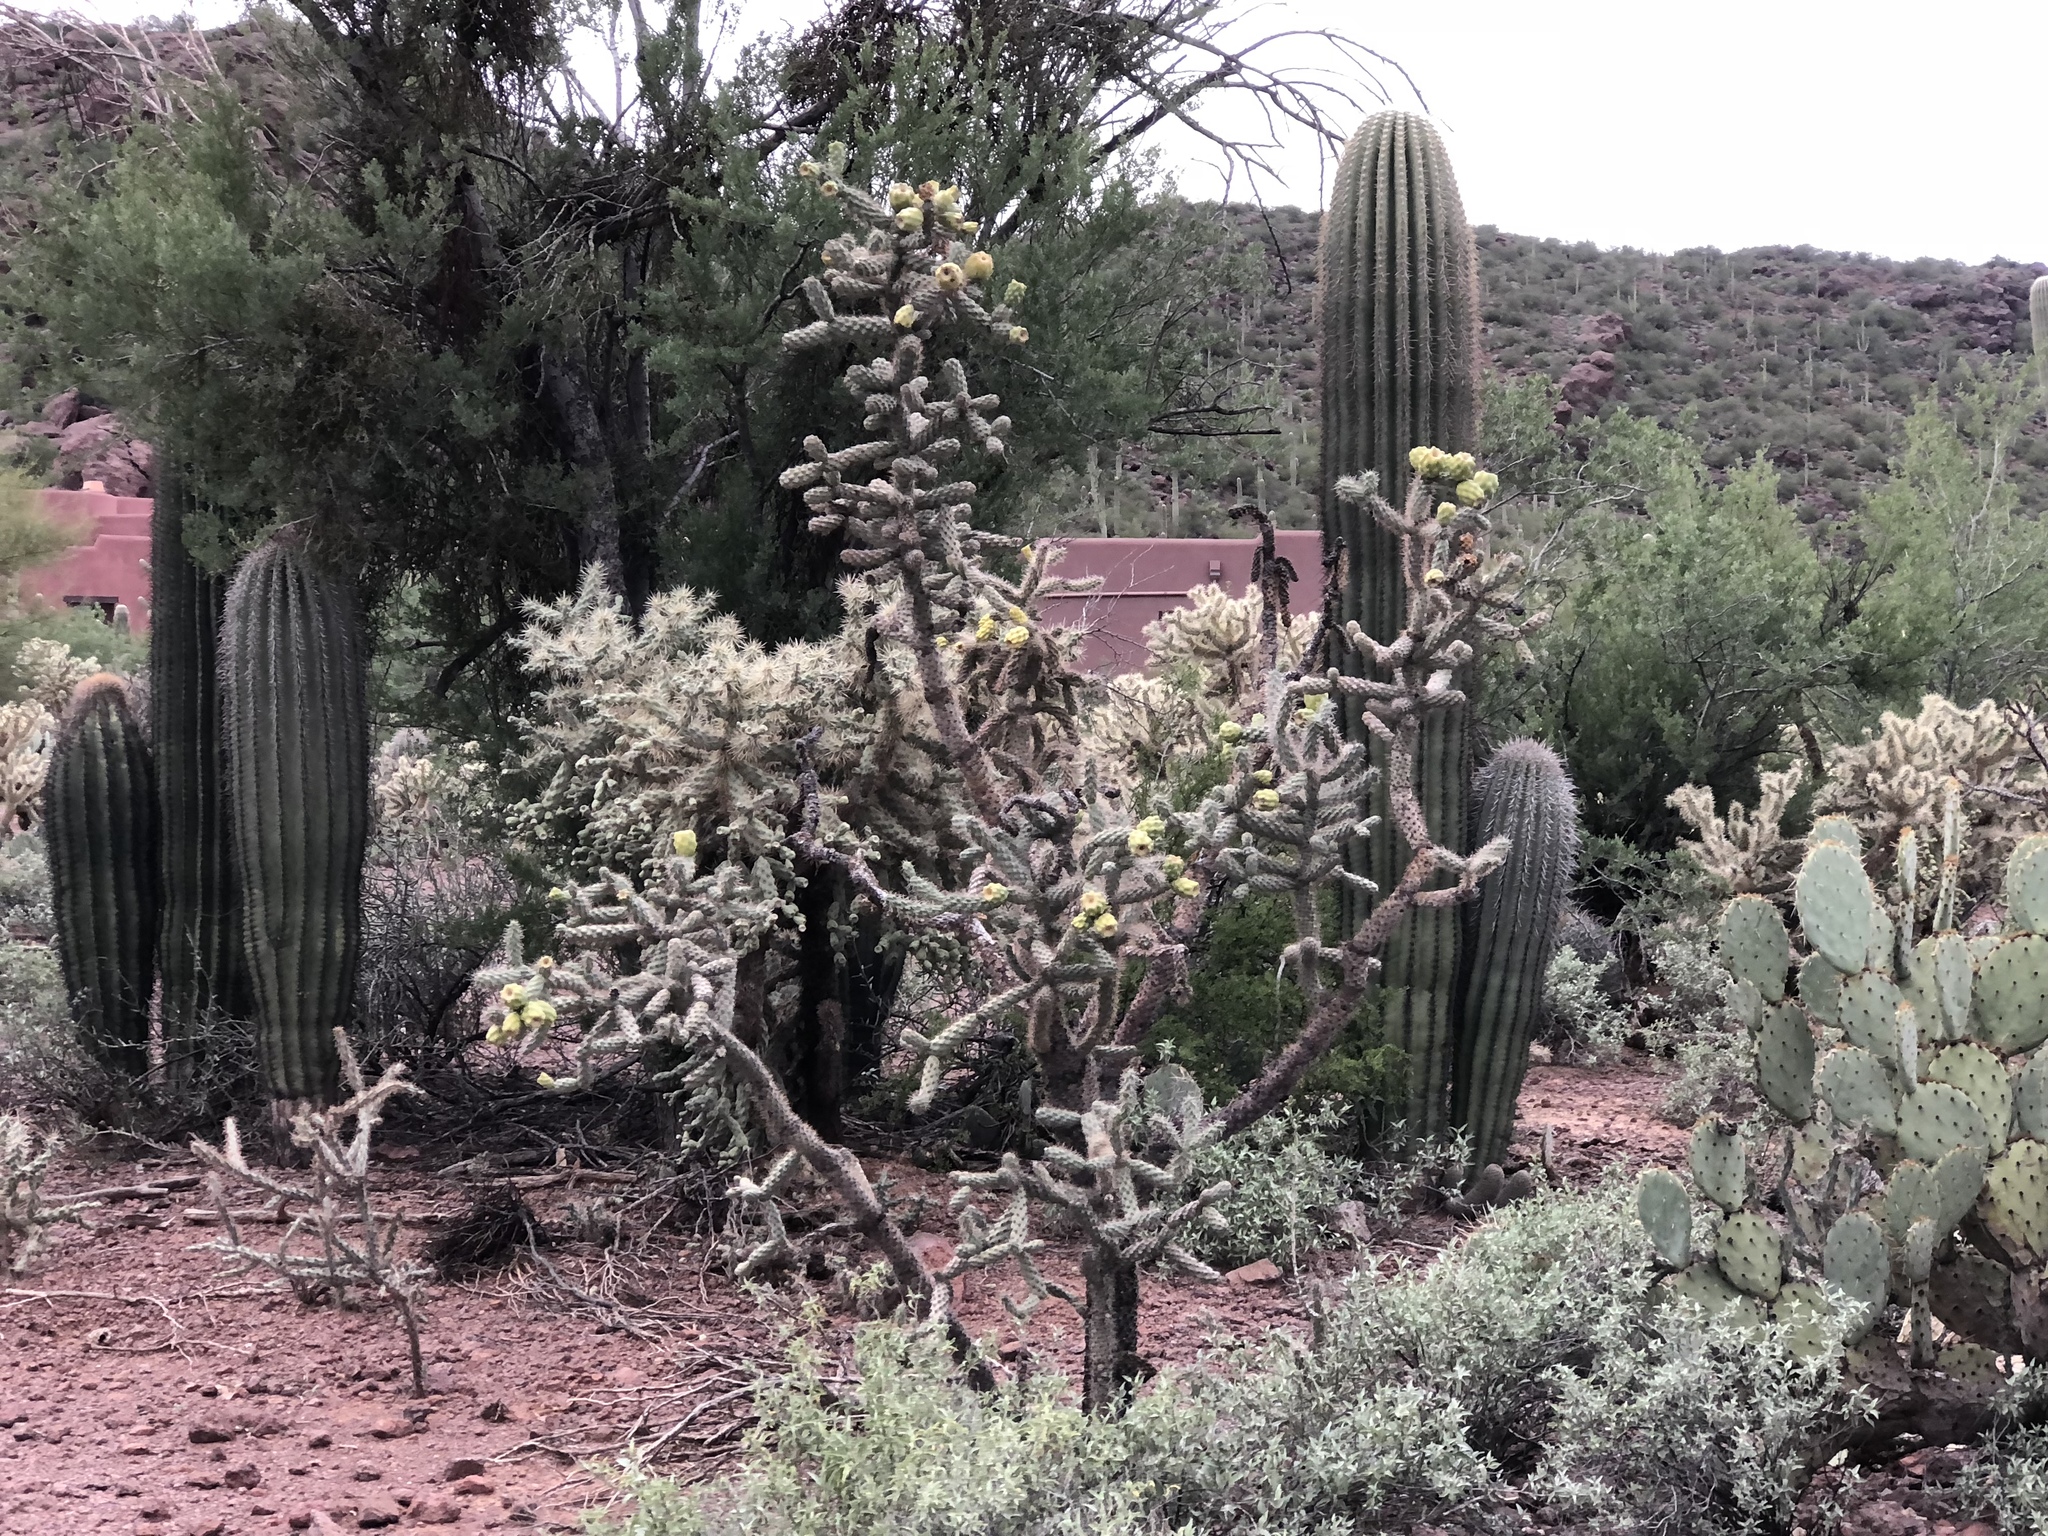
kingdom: Plantae
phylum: Tracheophyta
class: Magnoliopsida
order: Caryophyllales
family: Cactaceae
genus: Cylindropuntia
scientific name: Cylindropuntia imbricata
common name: Candelabrum cactus
